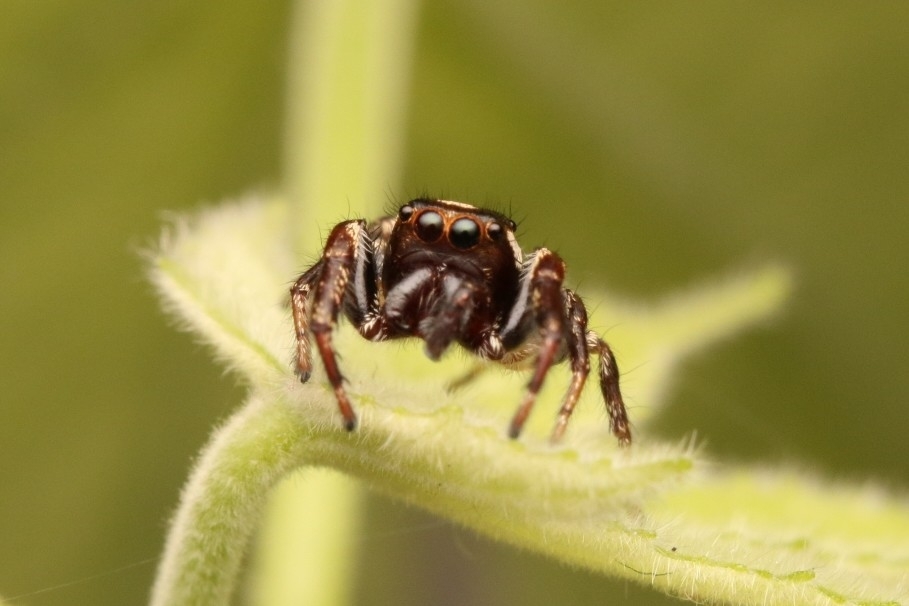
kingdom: Animalia
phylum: Arthropoda
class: Arachnida
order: Araneae
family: Salticidae
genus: Eris
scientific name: Eris militaris
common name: Bronze jumper
